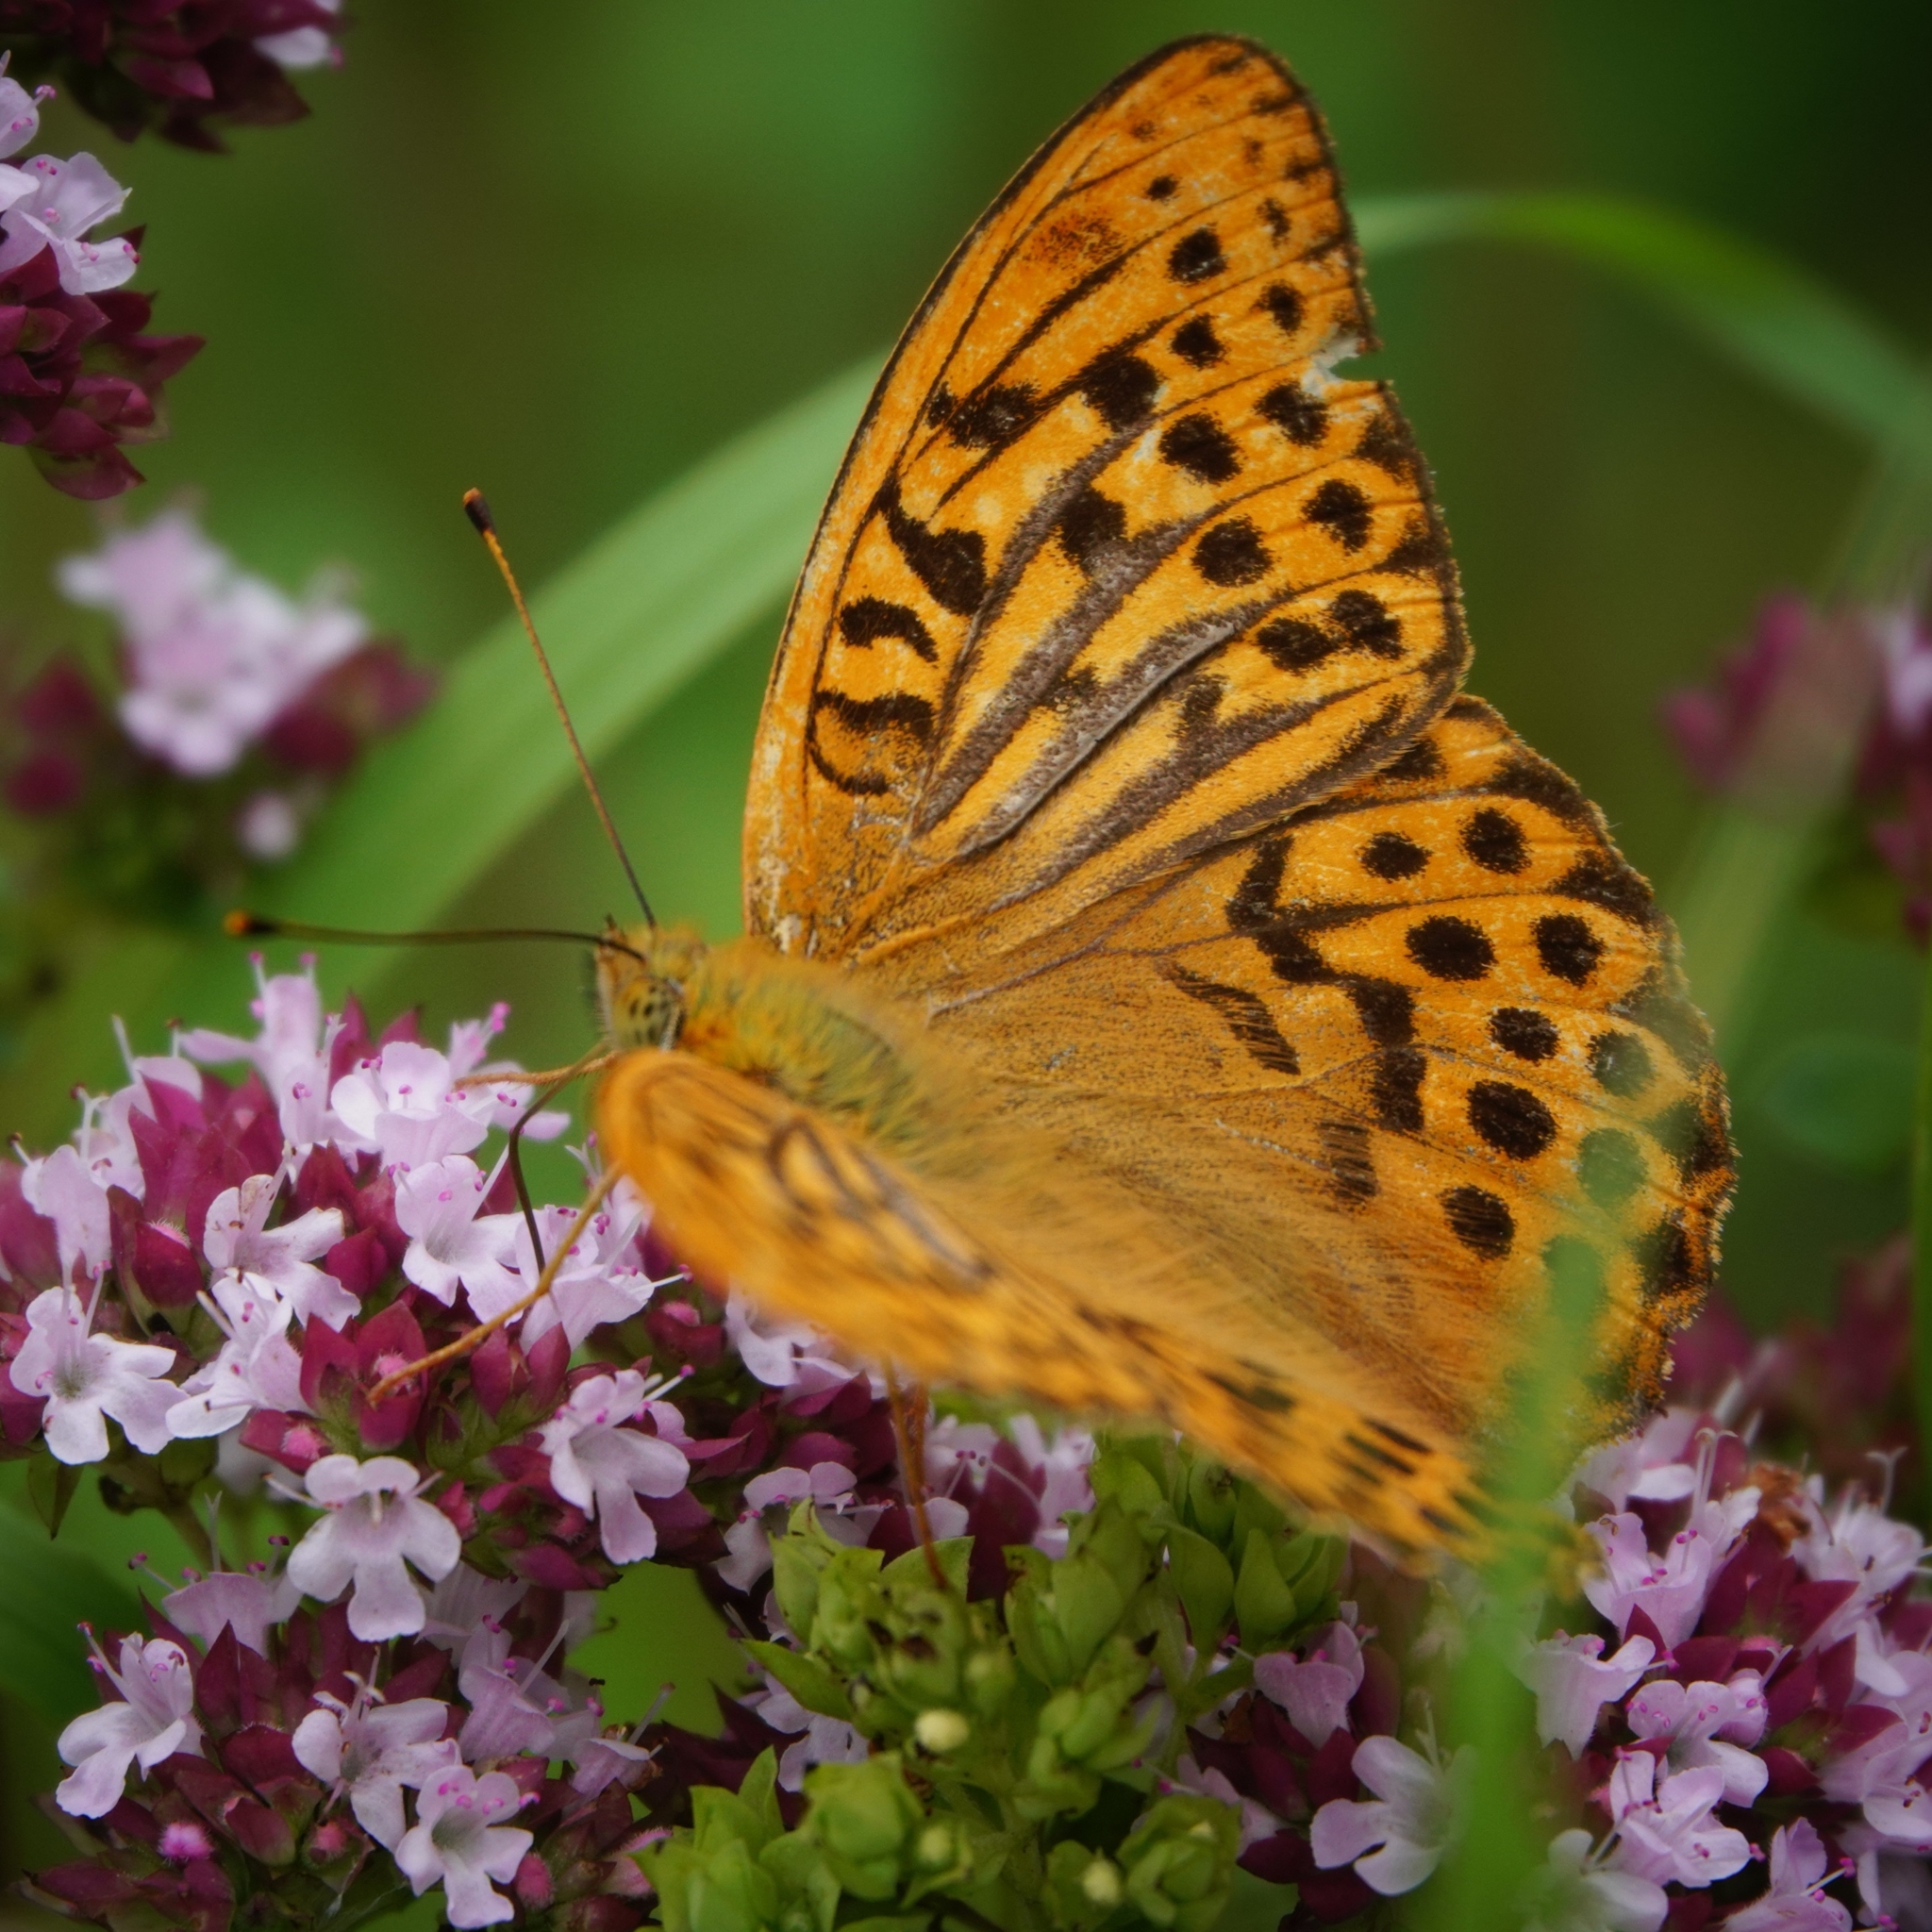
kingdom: Animalia
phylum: Arthropoda
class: Insecta
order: Lepidoptera
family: Nymphalidae
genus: Argynnis
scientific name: Argynnis paphia
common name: Silver-washed fritillary
